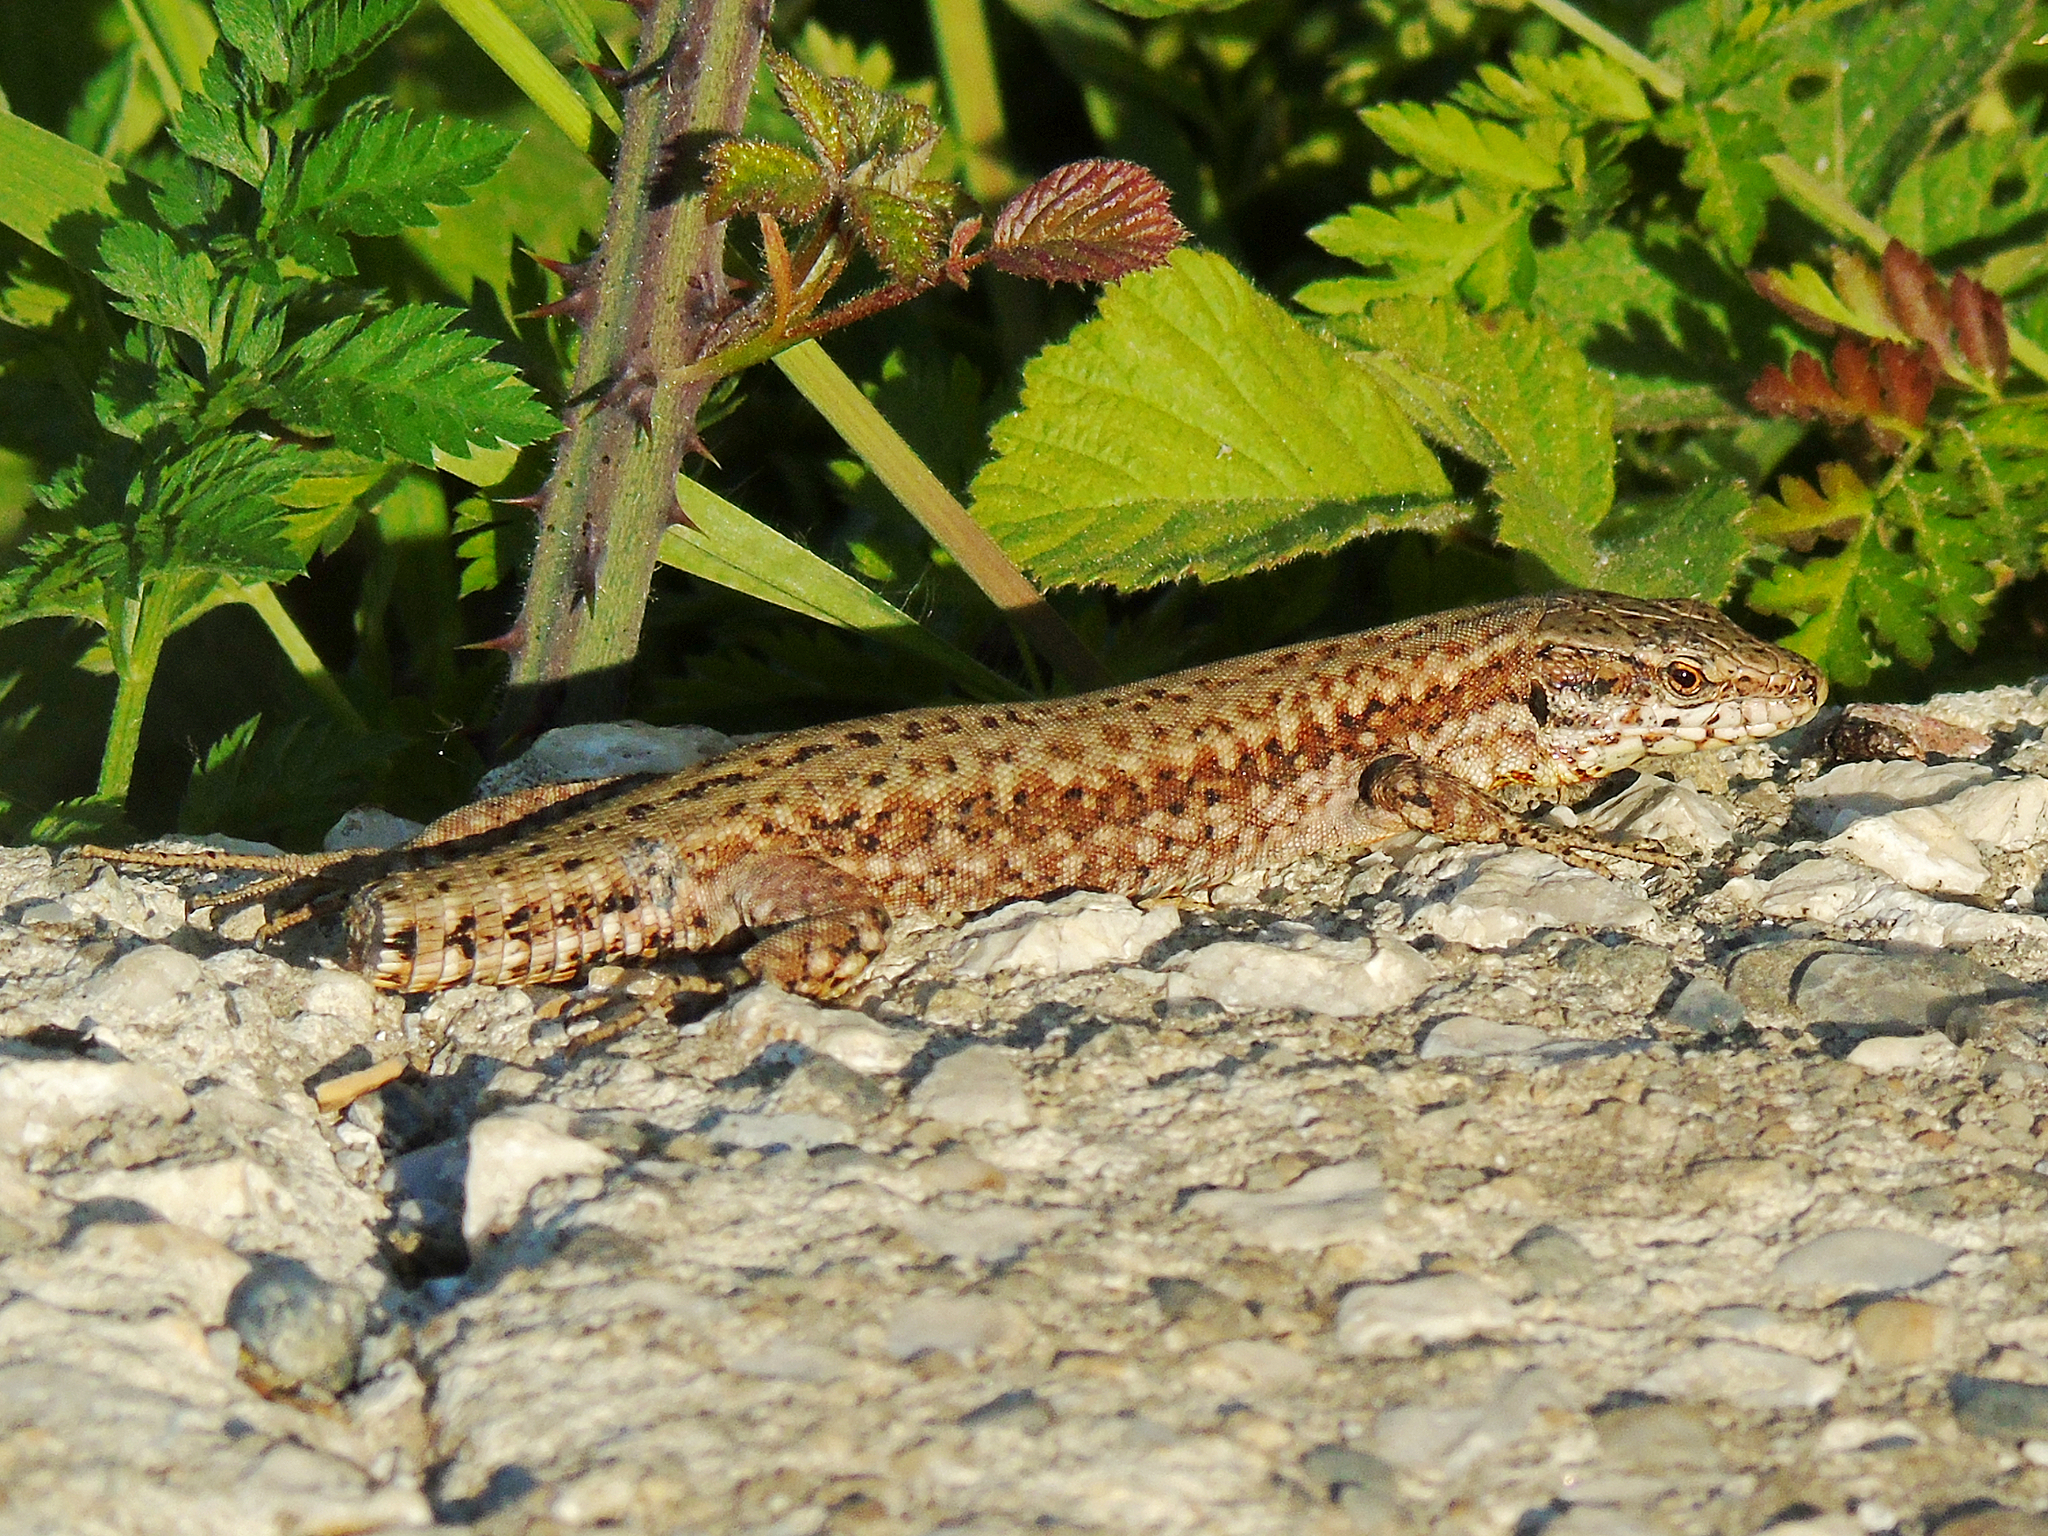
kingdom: Animalia
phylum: Chordata
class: Squamata
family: Lacertidae
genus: Podarcis
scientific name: Podarcis muralis
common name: Common wall lizard
